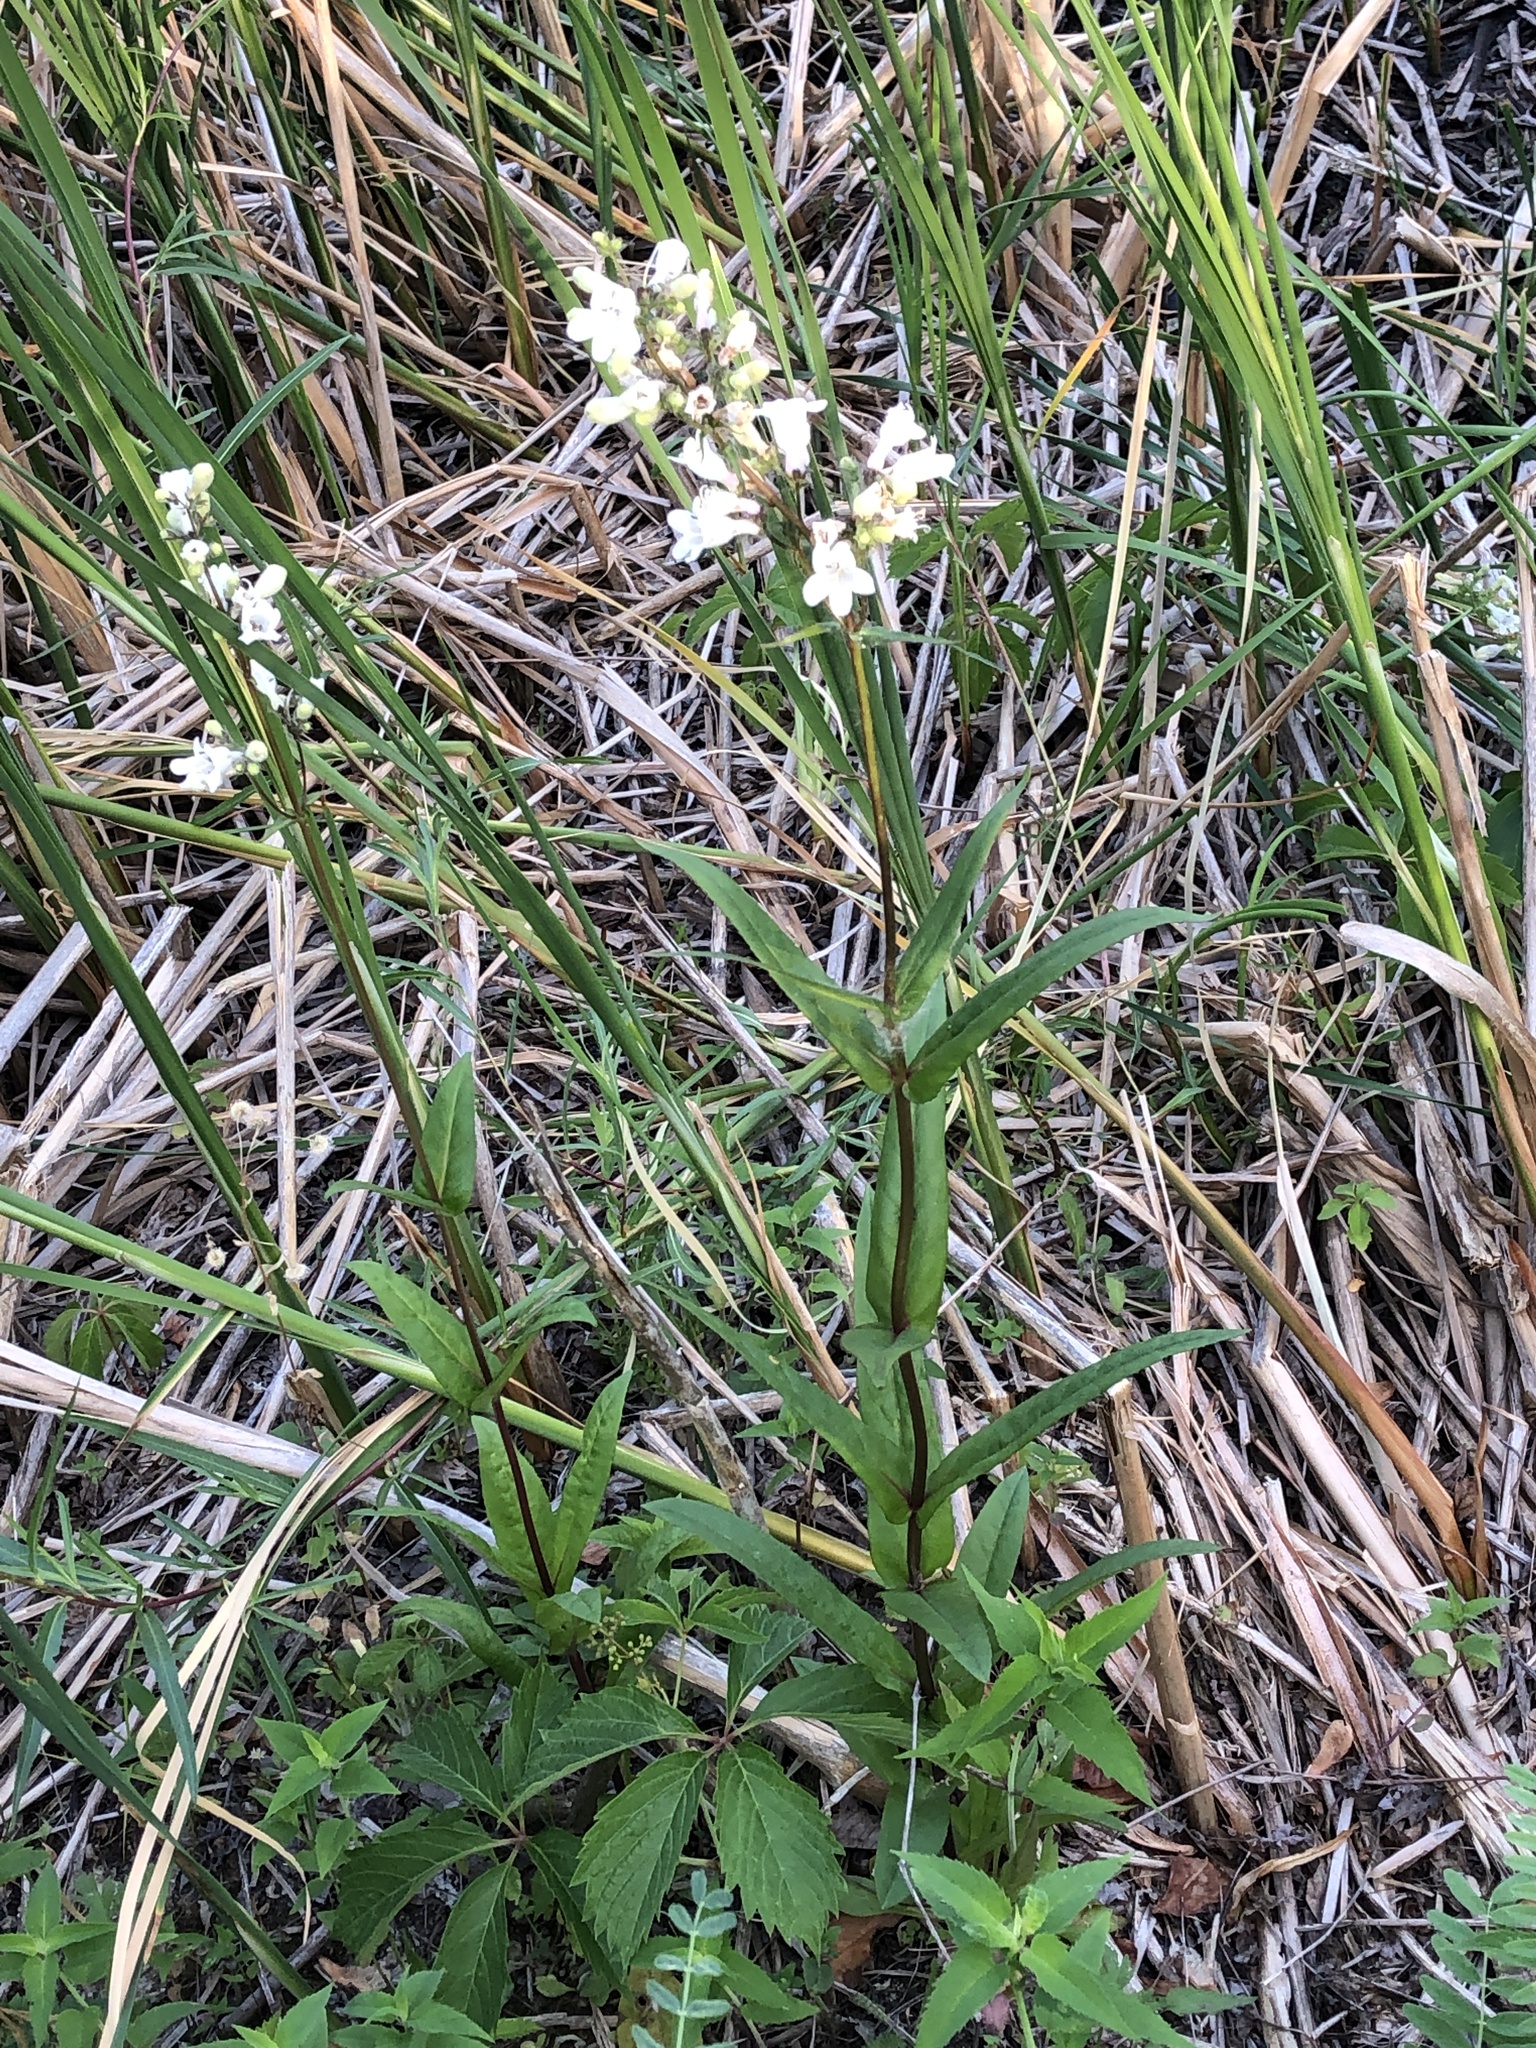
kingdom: Plantae
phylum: Tracheophyta
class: Magnoliopsida
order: Lamiales
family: Plantaginaceae
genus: Penstemon
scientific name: Penstemon digitalis
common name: Foxglove beardtongue
